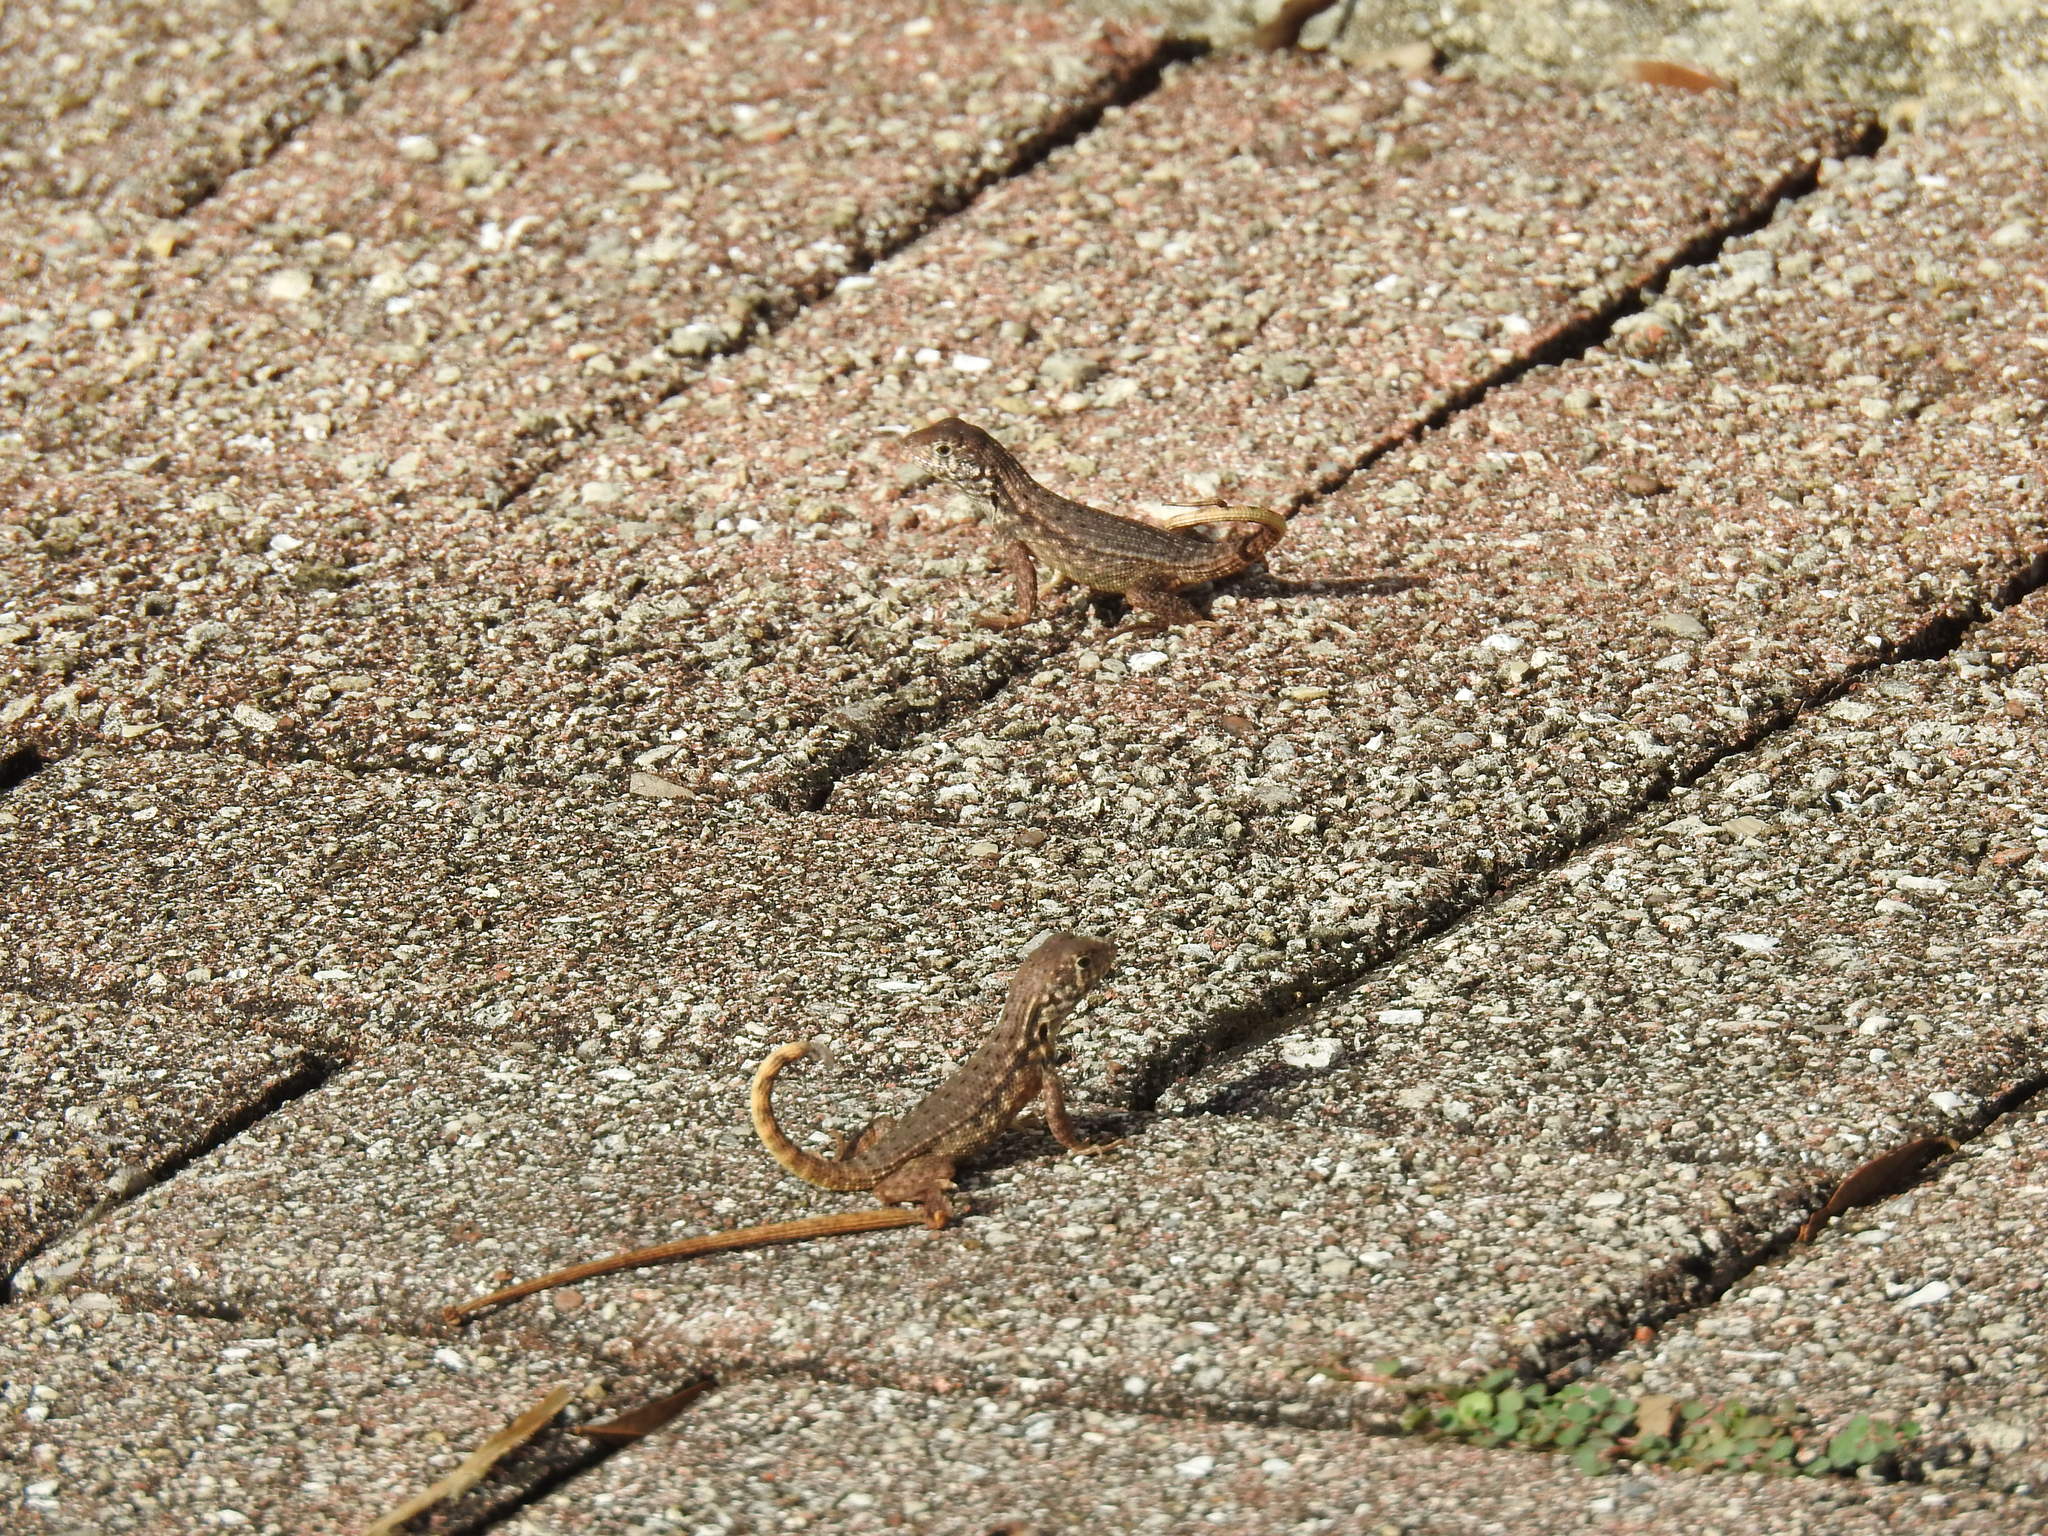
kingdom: Animalia
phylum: Chordata
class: Squamata
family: Leiocephalidae
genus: Leiocephalus
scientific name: Leiocephalus carinatus
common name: Northern curly-tailed lizard
